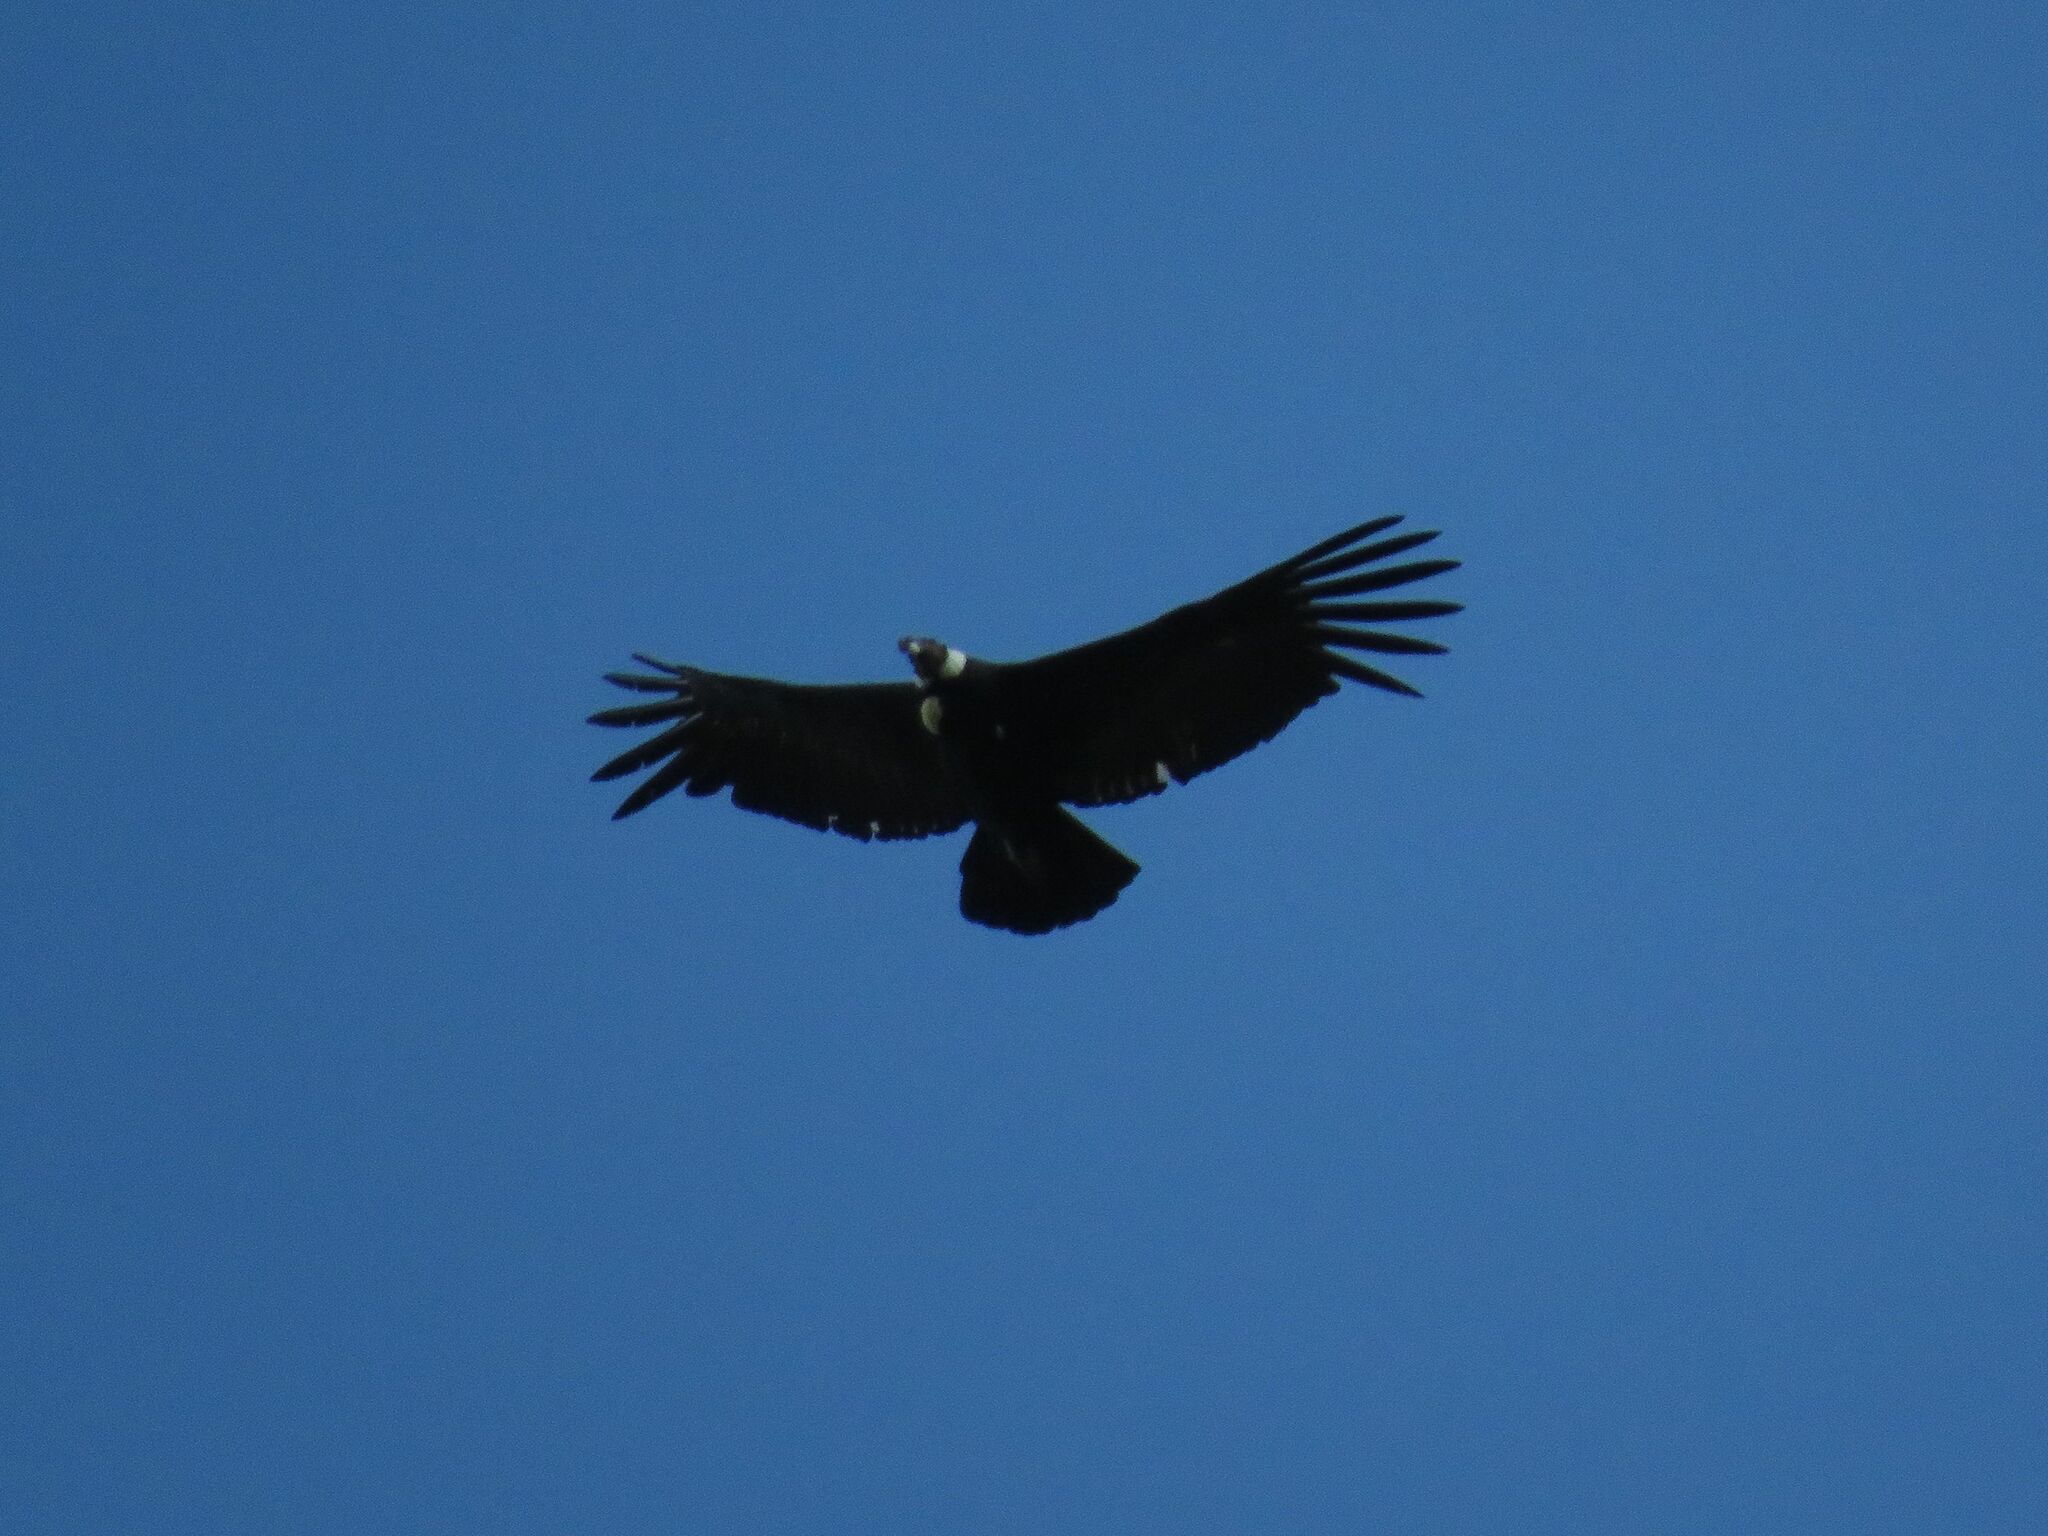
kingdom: Animalia
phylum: Chordata
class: Aves
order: Accipitriformes
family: Cathartidae
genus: Vultur
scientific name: Vultur gryphus
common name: Andean condor
